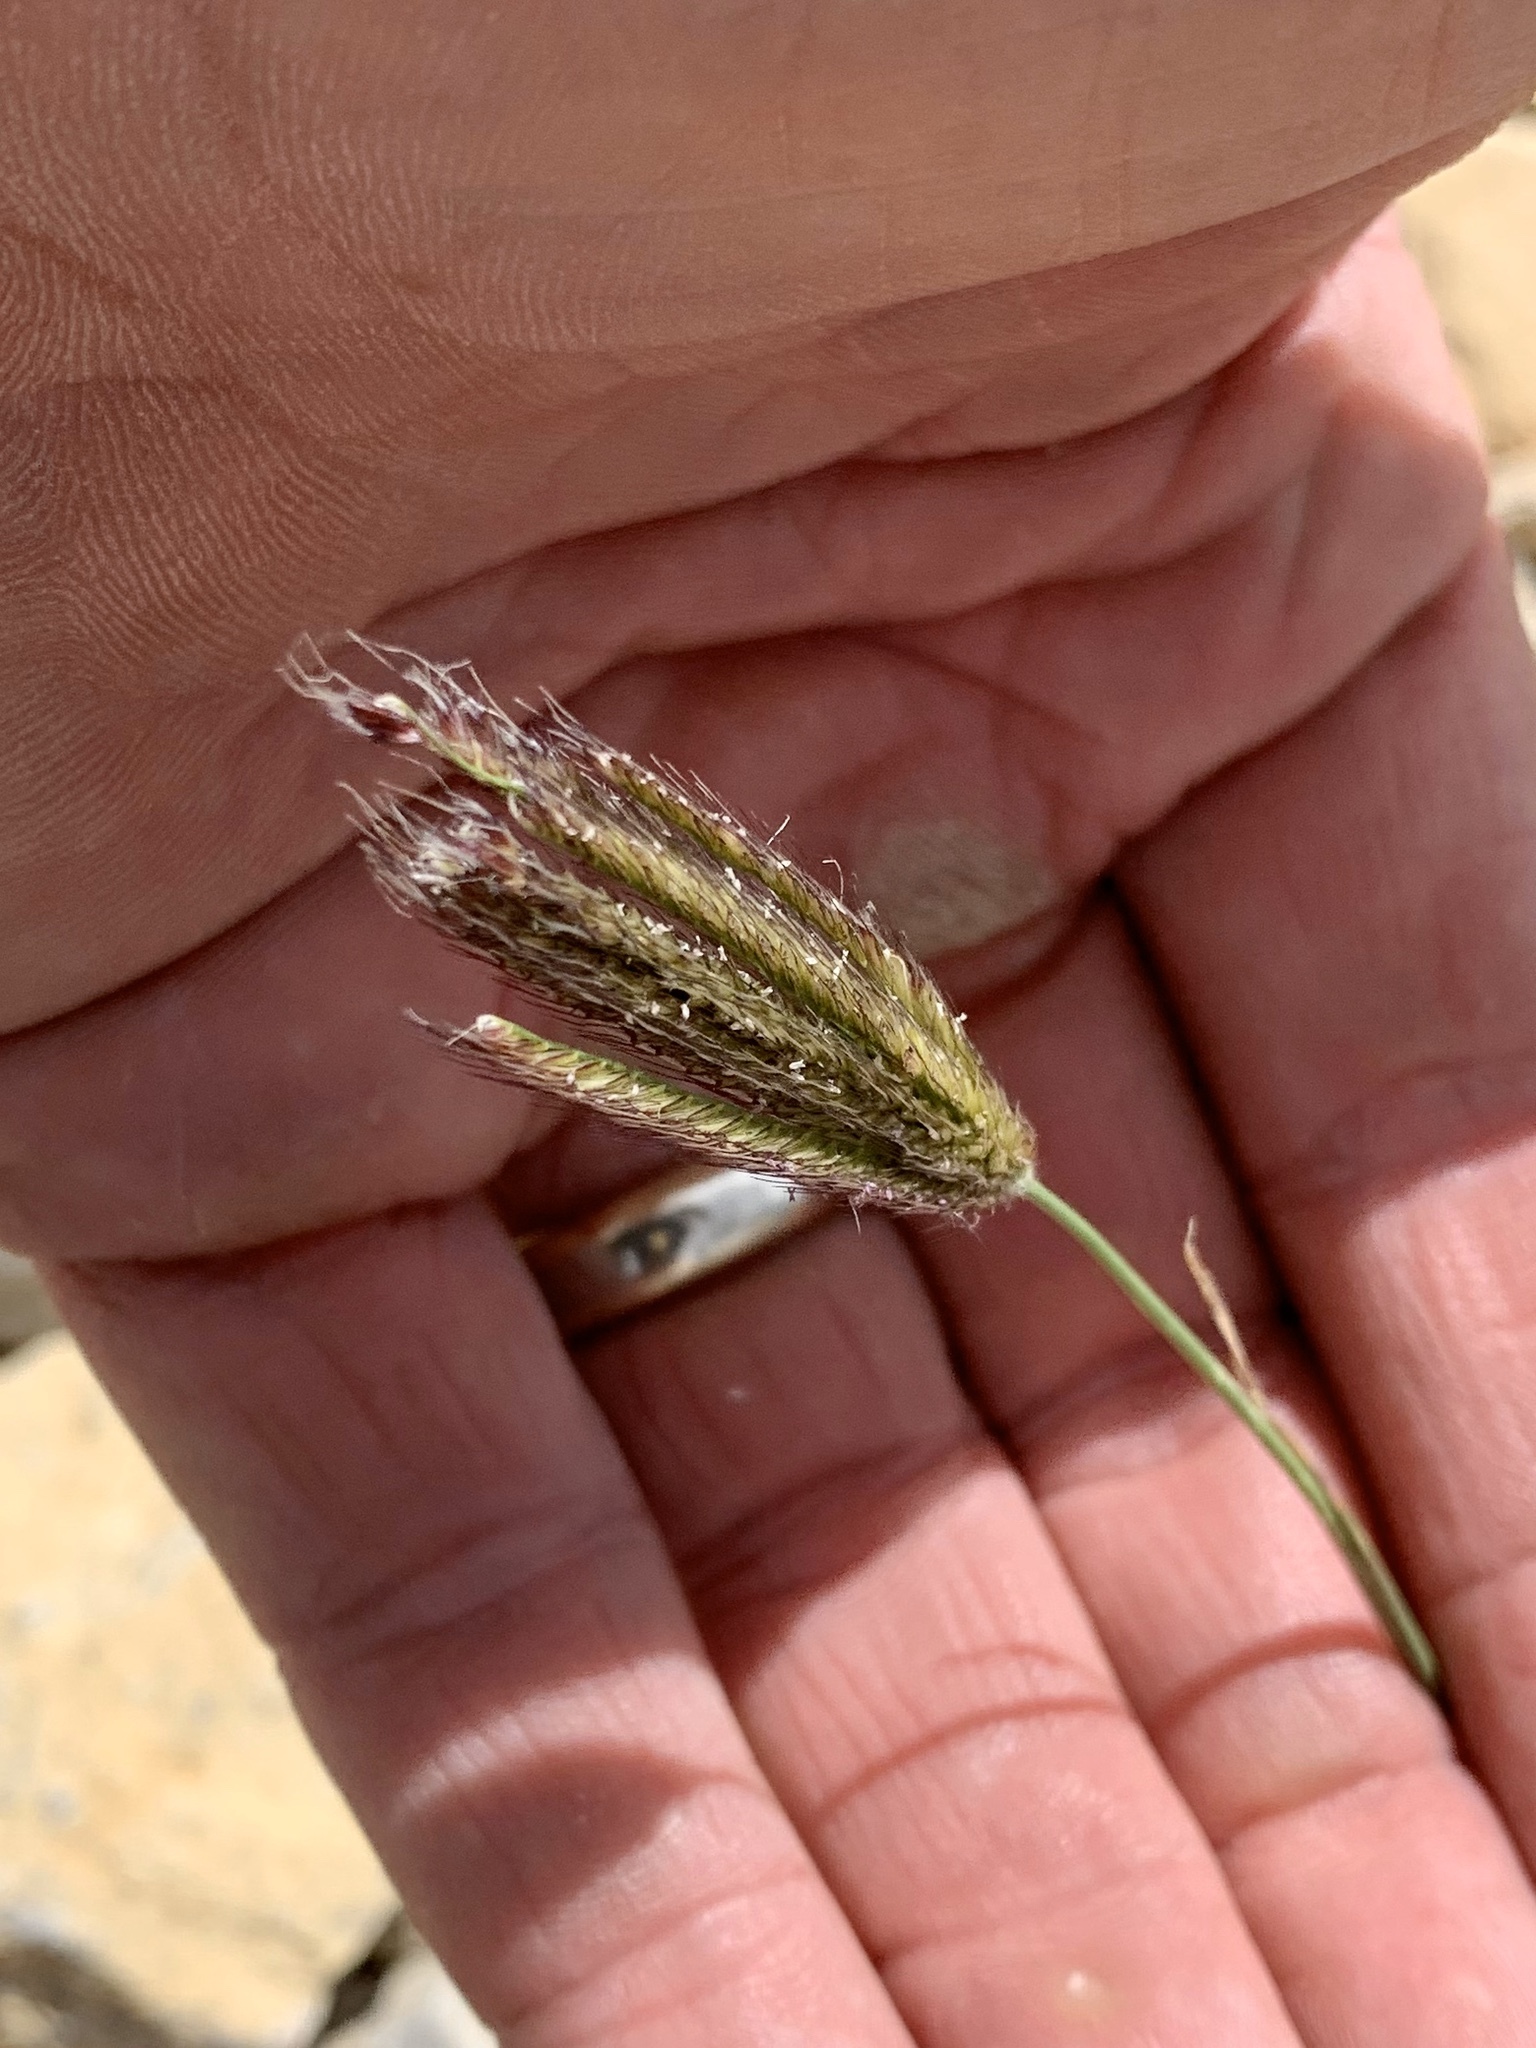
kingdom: Plantae
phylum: Tracheophyta
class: Liliopsida
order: Poales
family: Poaceae
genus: Chloris
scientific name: Chloris virgata
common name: Feathery rhodes-grass
